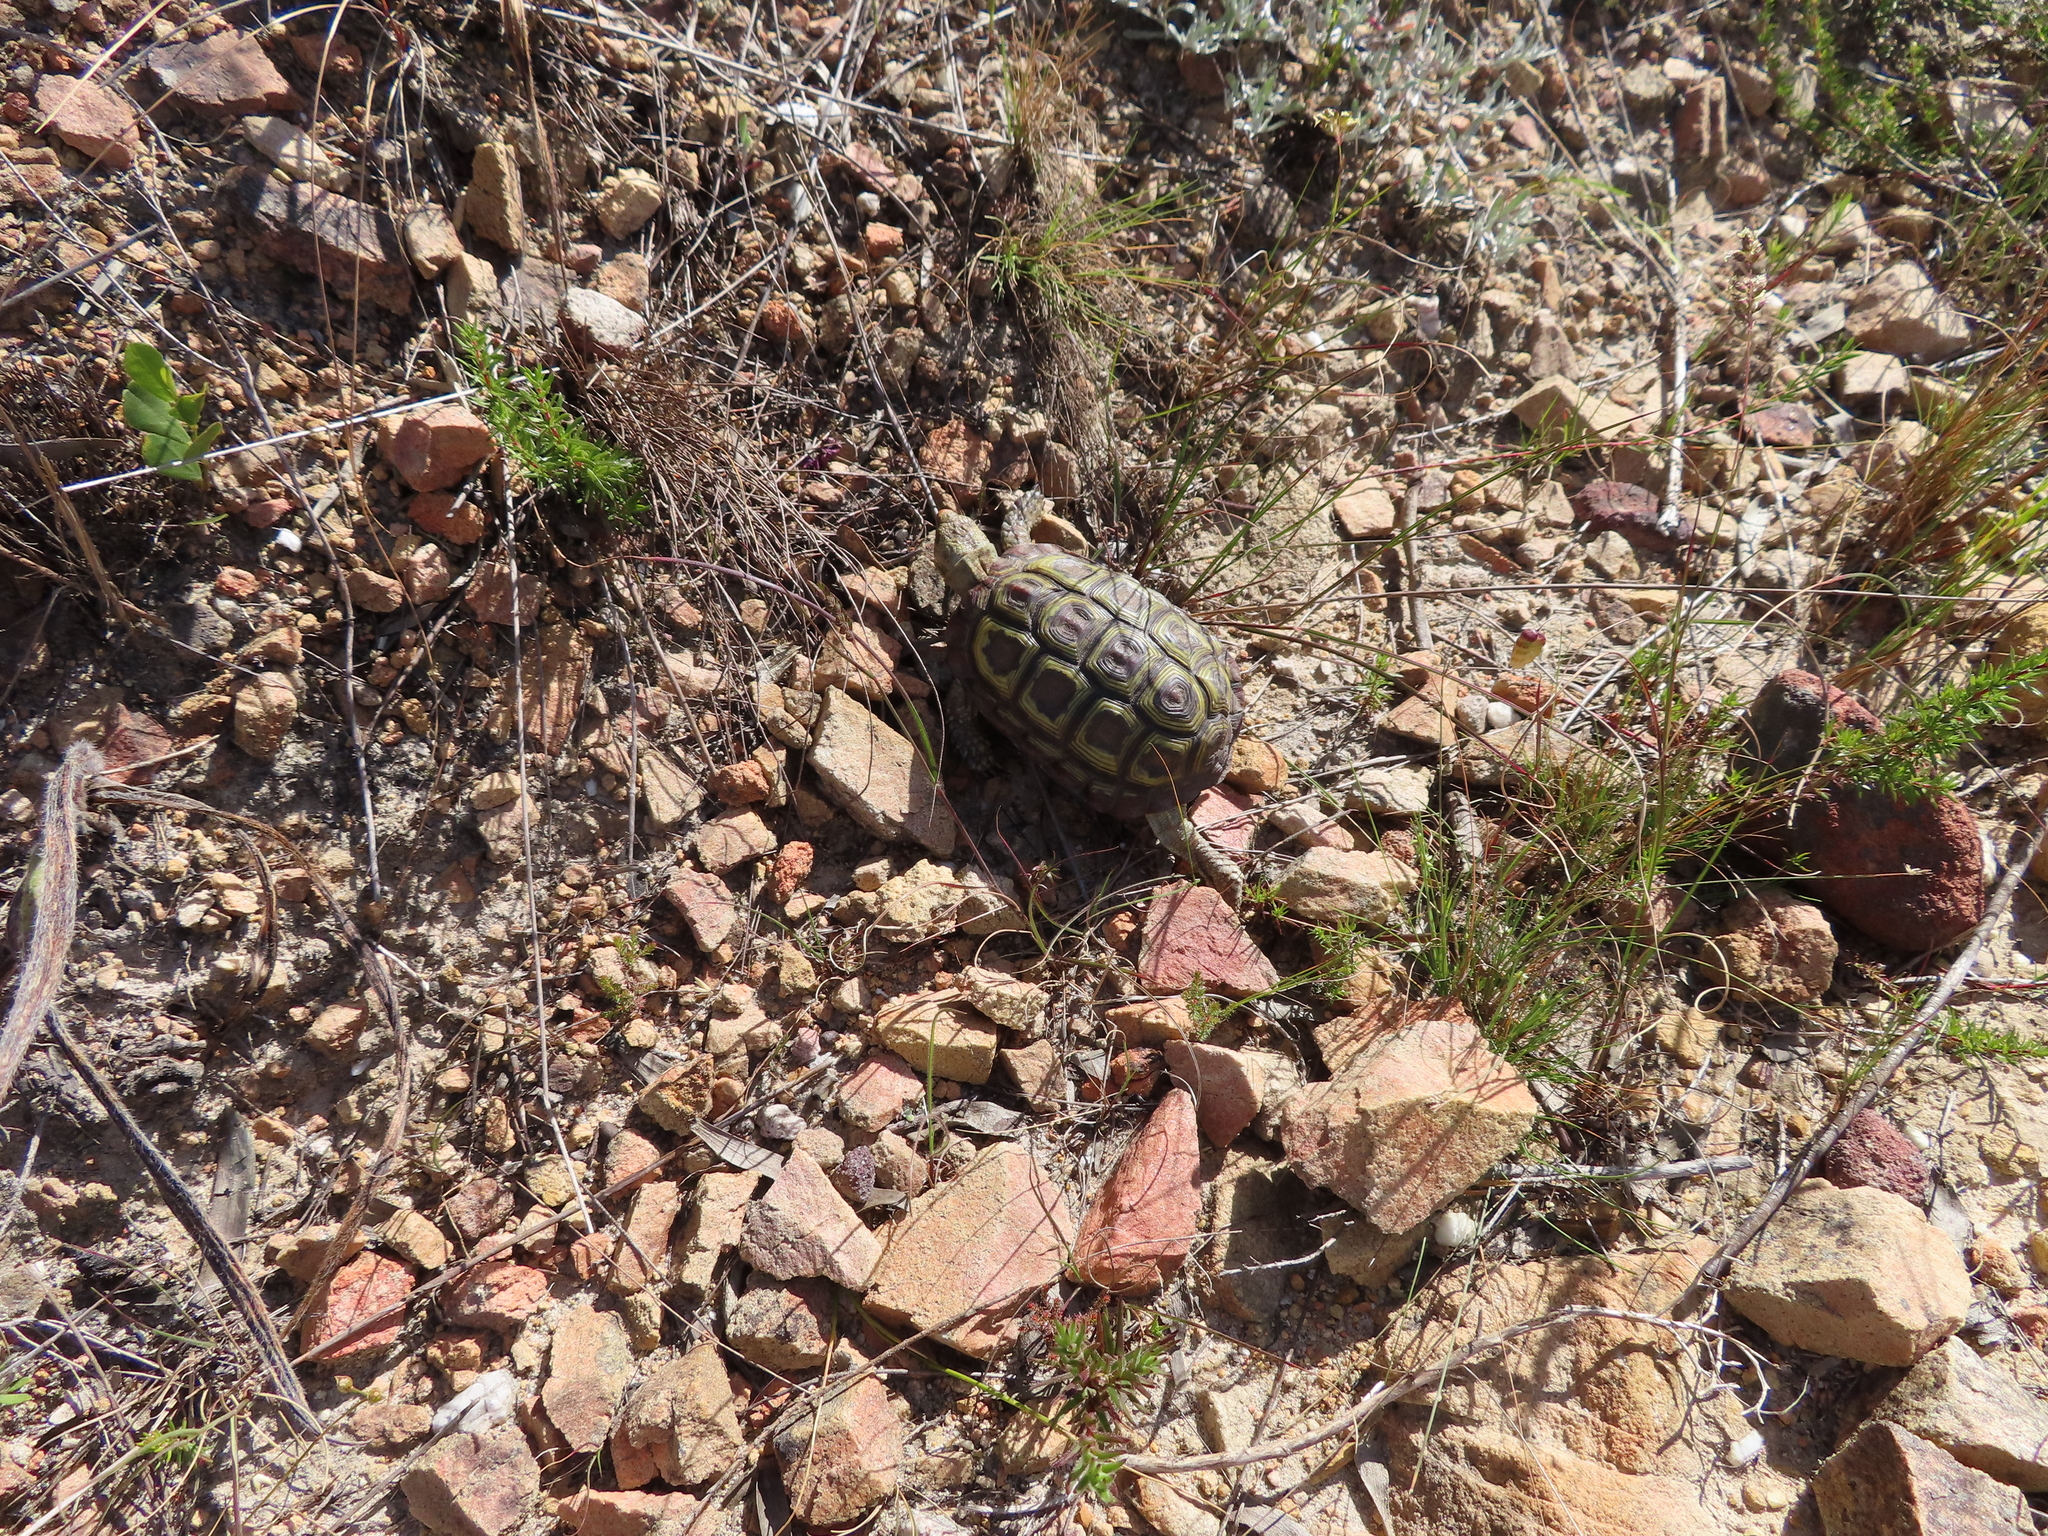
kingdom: Animalia
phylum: Chordata
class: Testudines
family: Testudinidae
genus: Homopus
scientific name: Homopus areolatus
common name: Parrot-beaked tortoise
